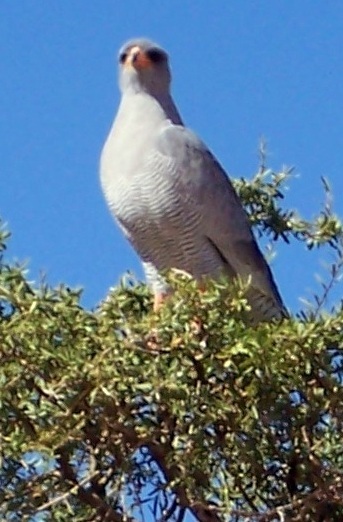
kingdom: Animalia
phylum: Chordata
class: Aves
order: Accipitriformes
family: Accipitridae
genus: Melierax
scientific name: Melierax canorus
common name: Pale chanting-goshawk
